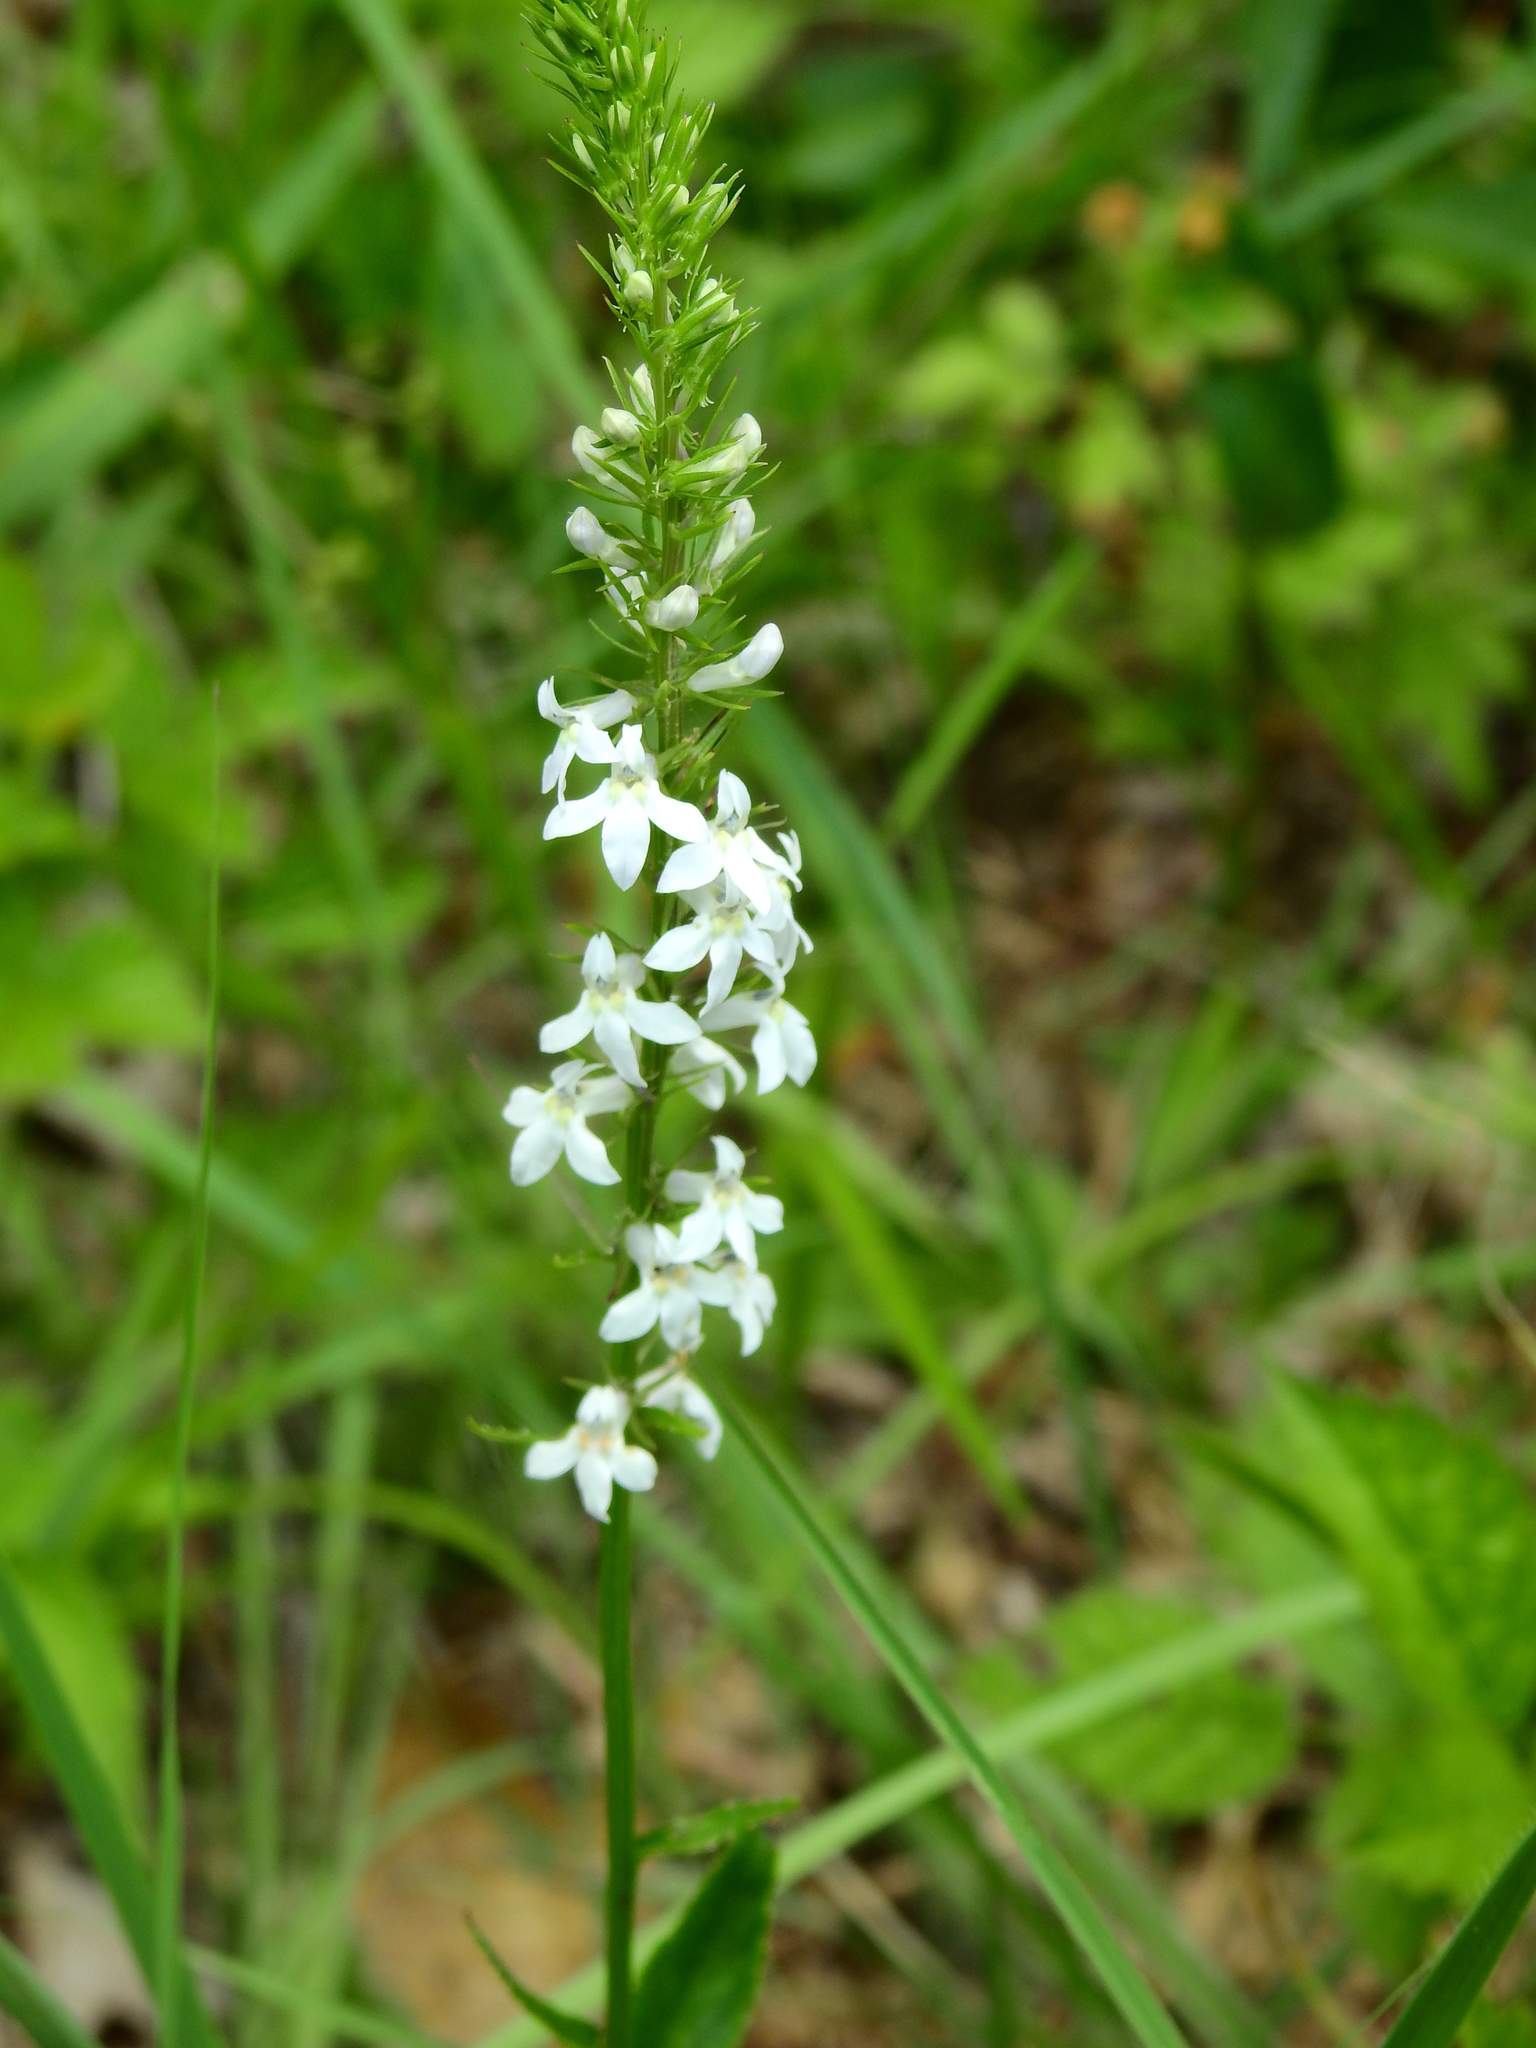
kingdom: Plantae
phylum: Tracheophyta
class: Magnoliopsida
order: Asterales
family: Campanulaceae
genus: Lobelia
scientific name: Lobelia spicata
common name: Pale-spike lobelia
